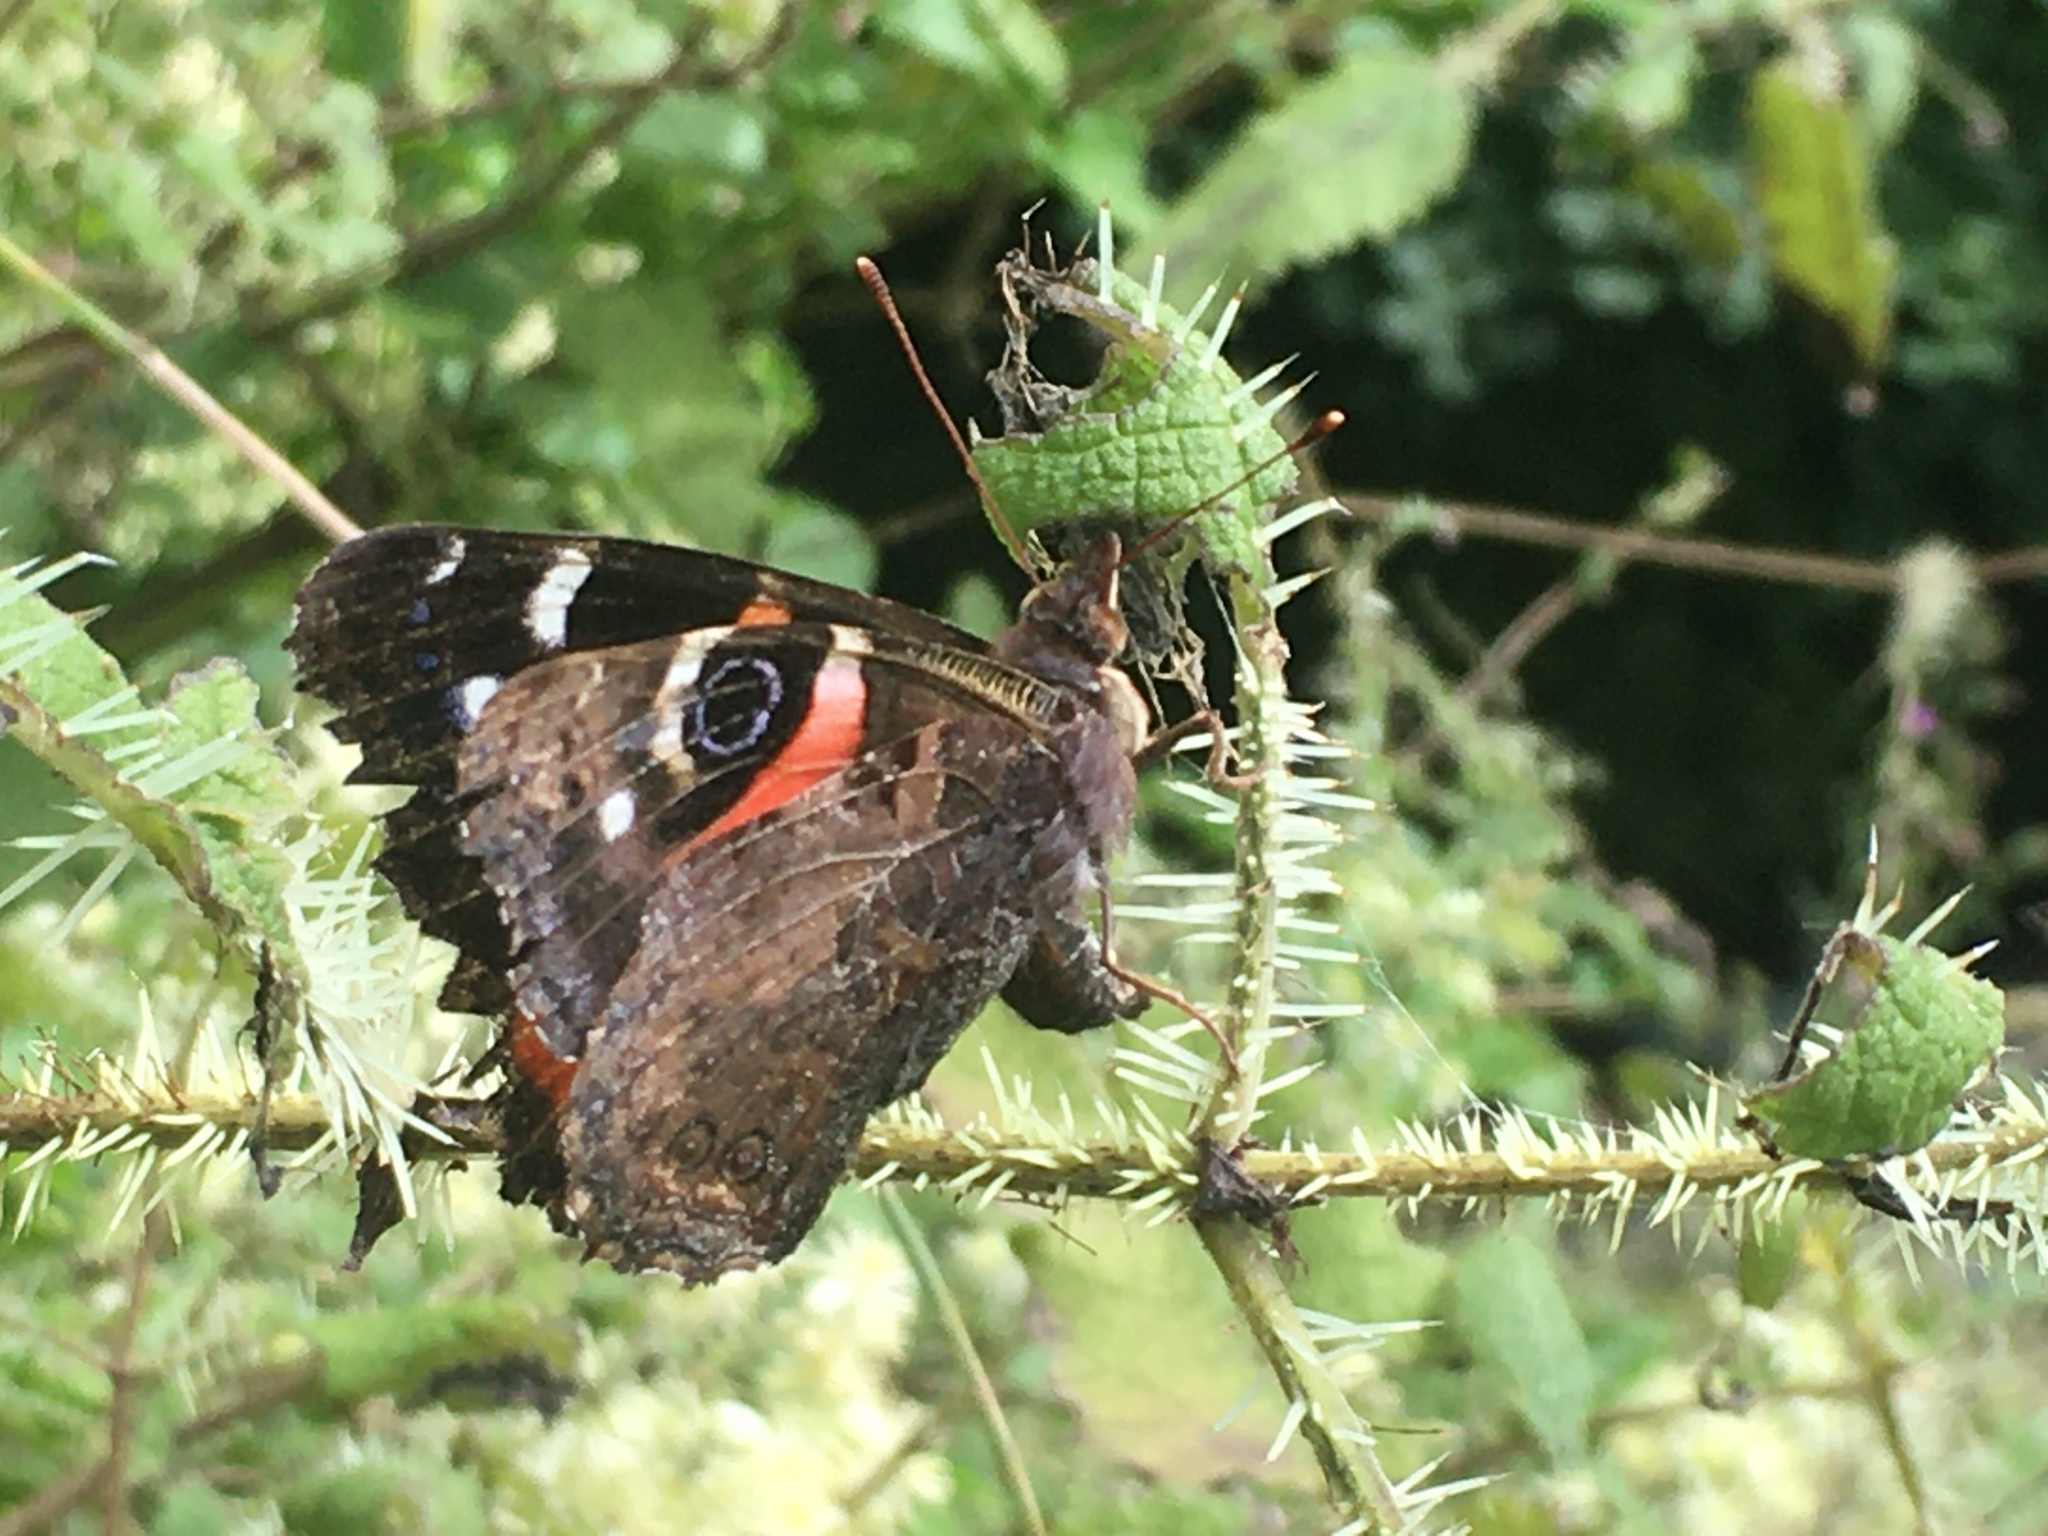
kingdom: Animalia
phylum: Arthropoda
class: Insecta
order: Lepidoptera
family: Nymphalidae
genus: Vanessa
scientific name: Vanessa gonerilla
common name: New zealand red admiral
